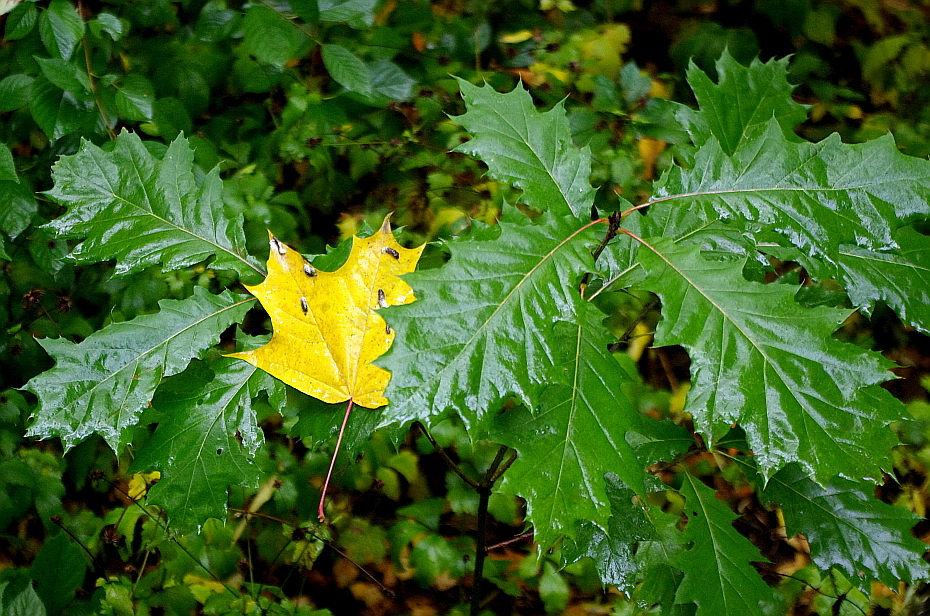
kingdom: Plantae
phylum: Tracheophyta
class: Magnoliopsida
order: Fagales
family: Fagaceae
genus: Quercus
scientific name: Quercus rubra
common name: Red oak
